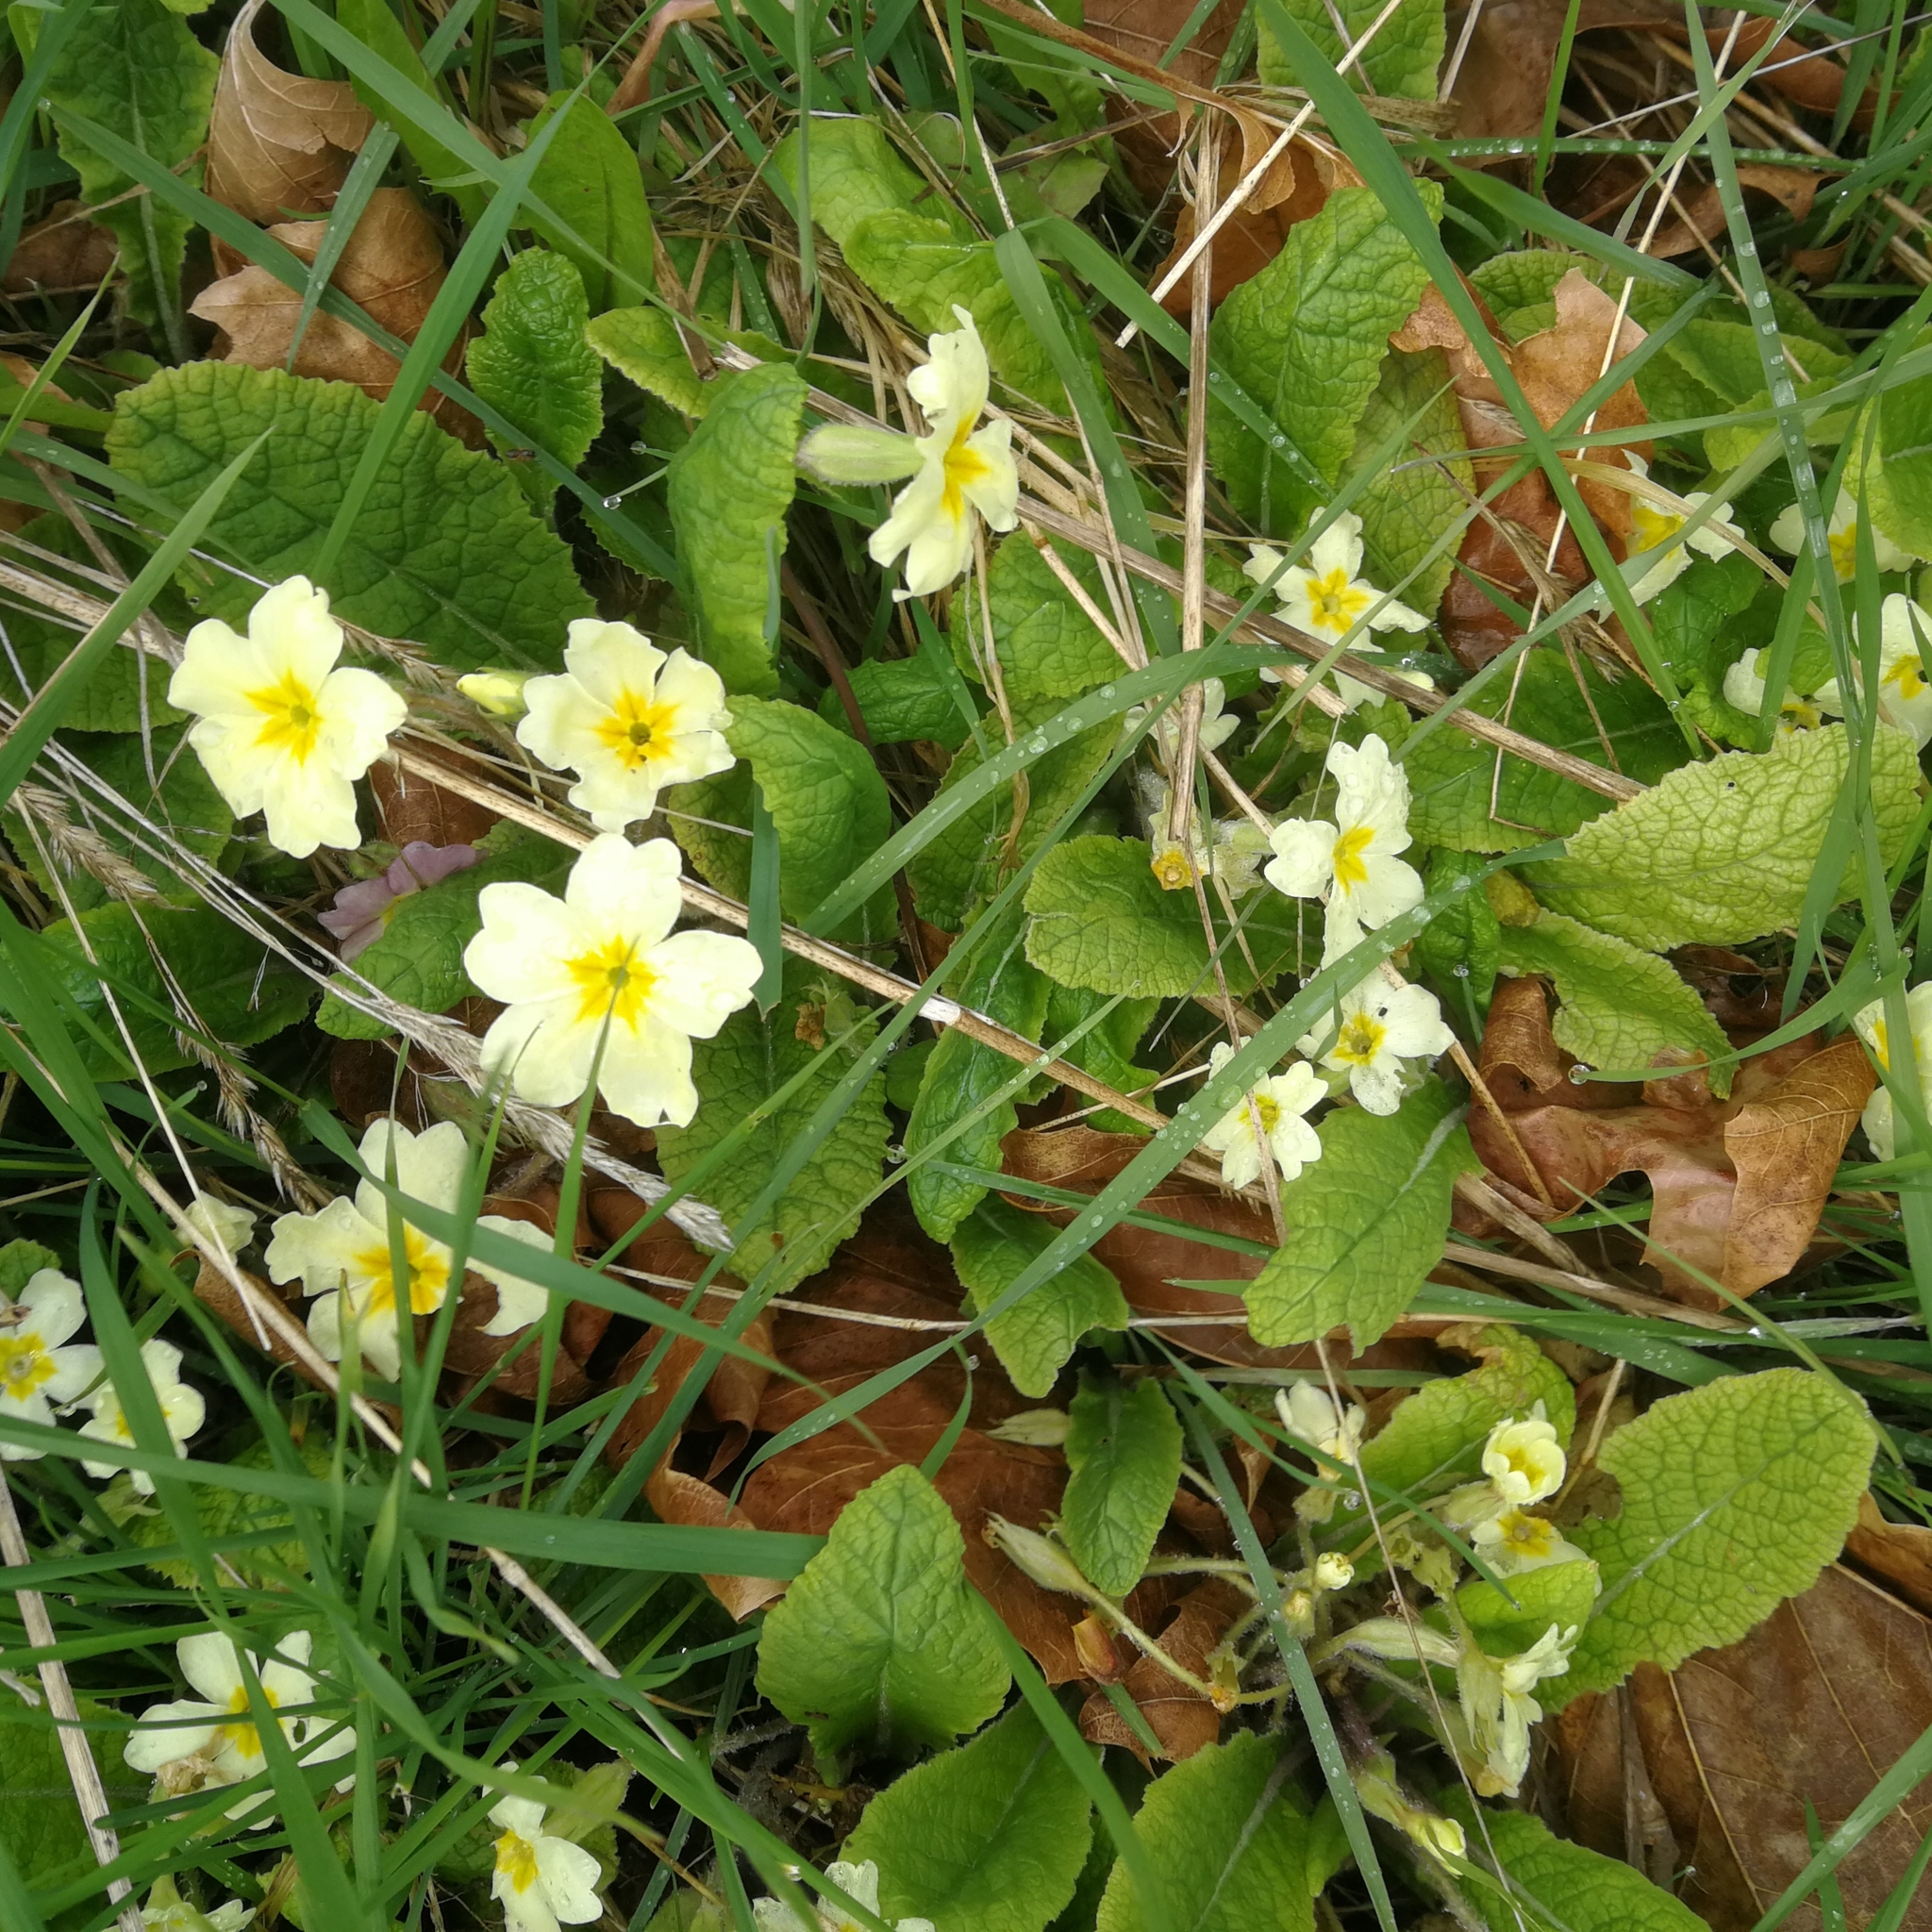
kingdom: Plantae
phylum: Tracheophyta
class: Magnoliopsida
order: Ericales
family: Primulaceae
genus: Primula
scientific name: Primula vulgaris
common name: Primrose
